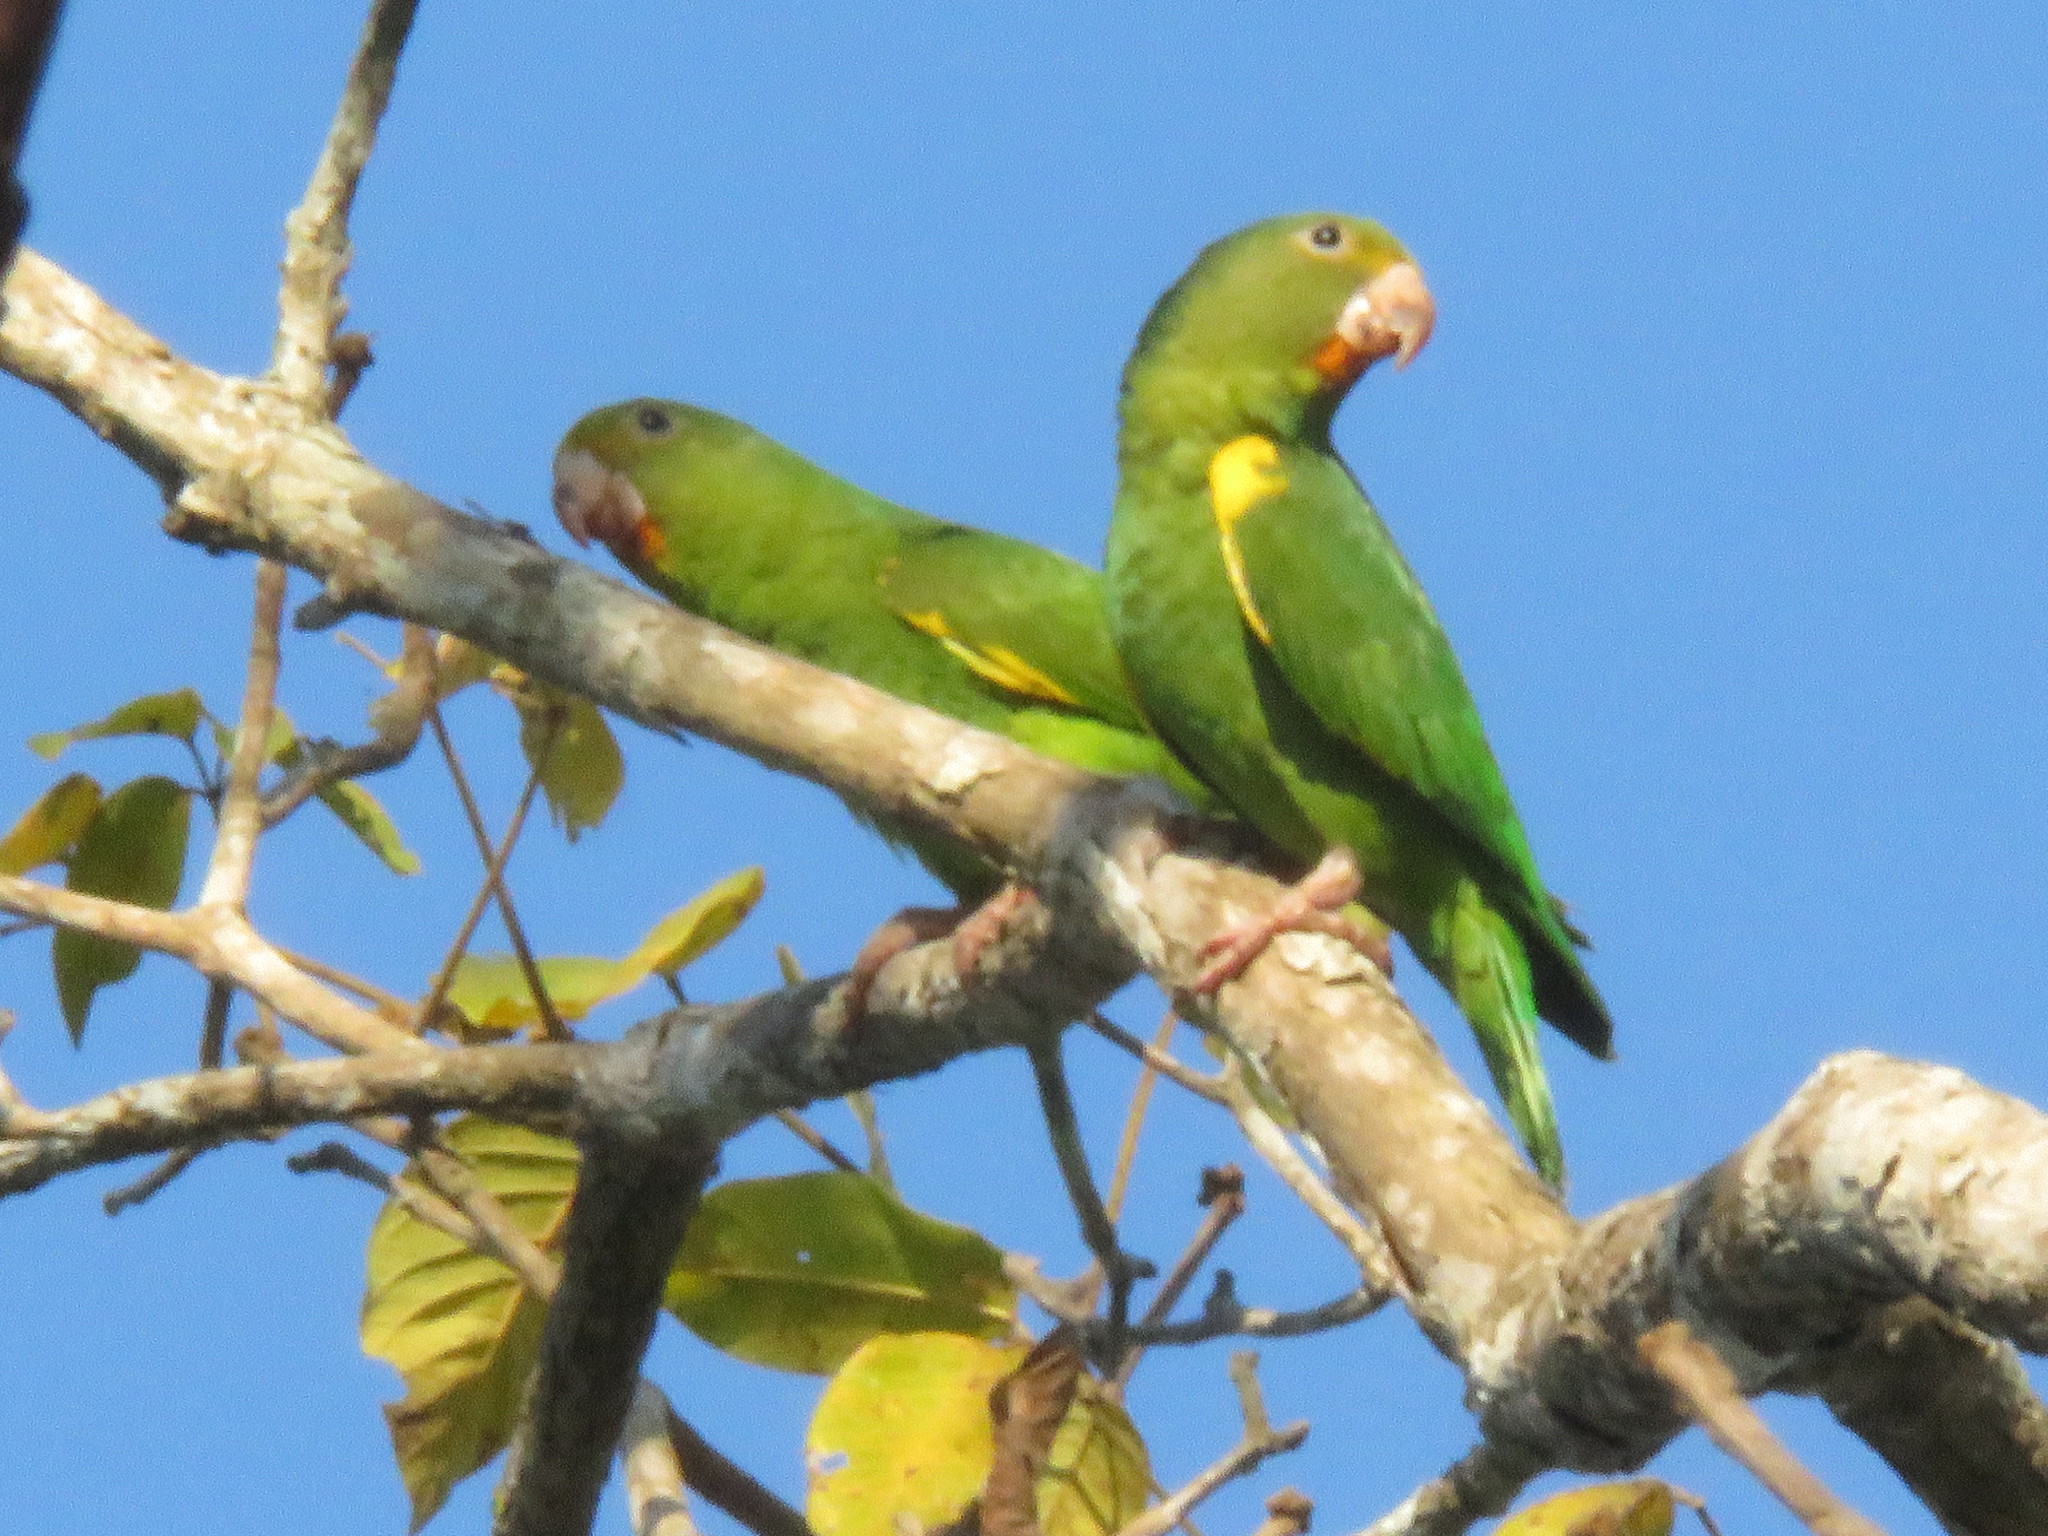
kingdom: Animalia
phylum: Chordata
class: Aves
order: Psittaciformes
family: Psittacidae
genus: Brotogeris
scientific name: Brotogeris cyanoptera
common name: Cobalt-winged parakeet
